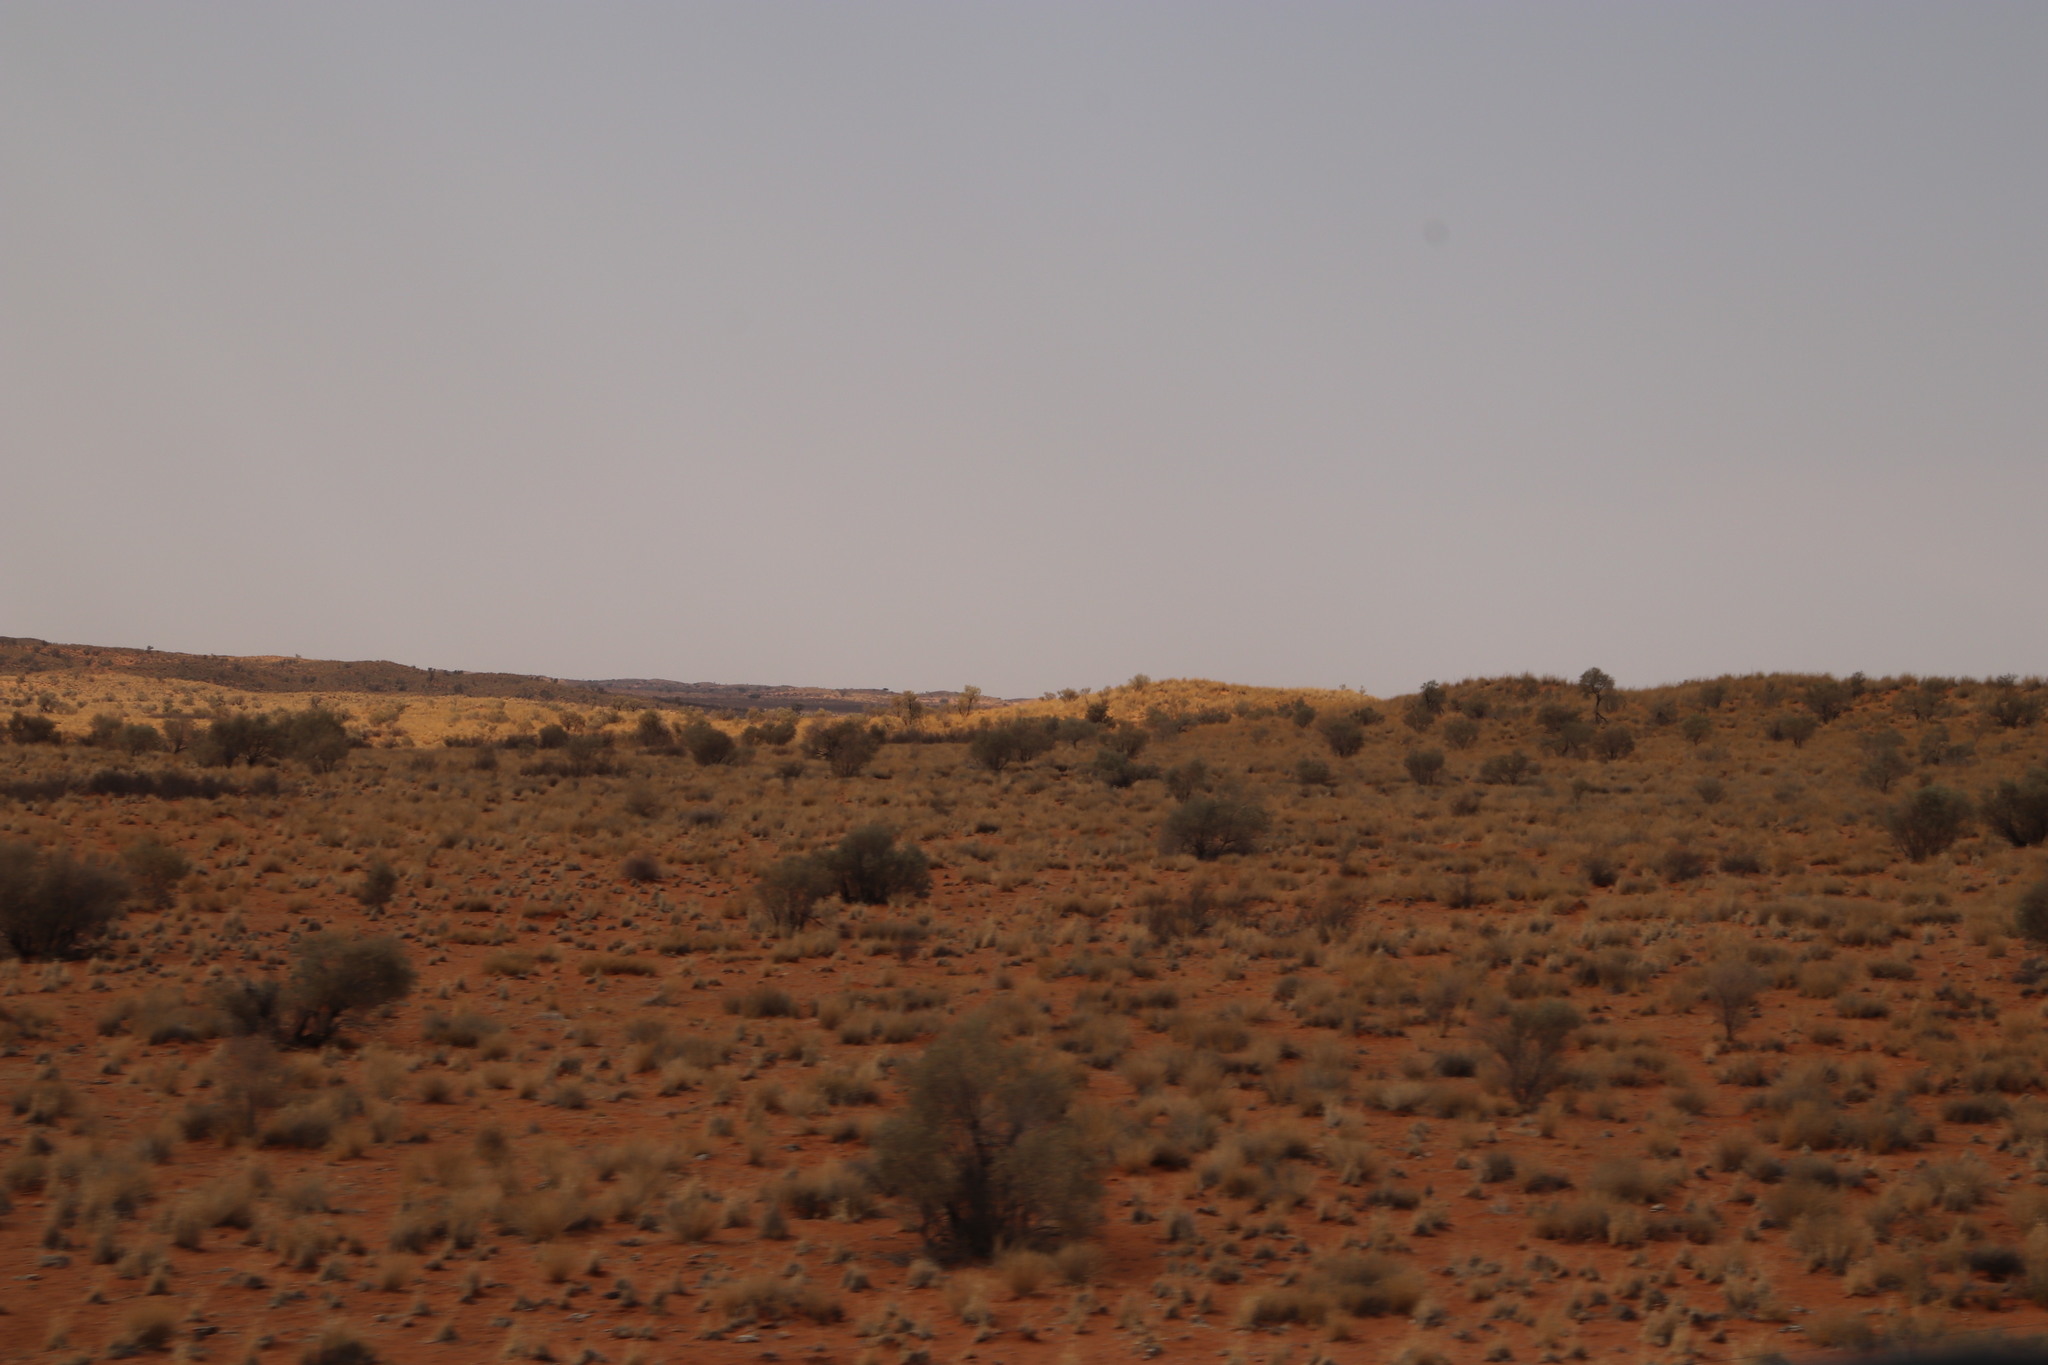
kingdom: Plantae
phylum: Tracheophyta
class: Magnoliopsida
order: Fabales
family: Fabaceae
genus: Vachellia
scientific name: Vachellia haematoxylon
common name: Grey camel thorn
